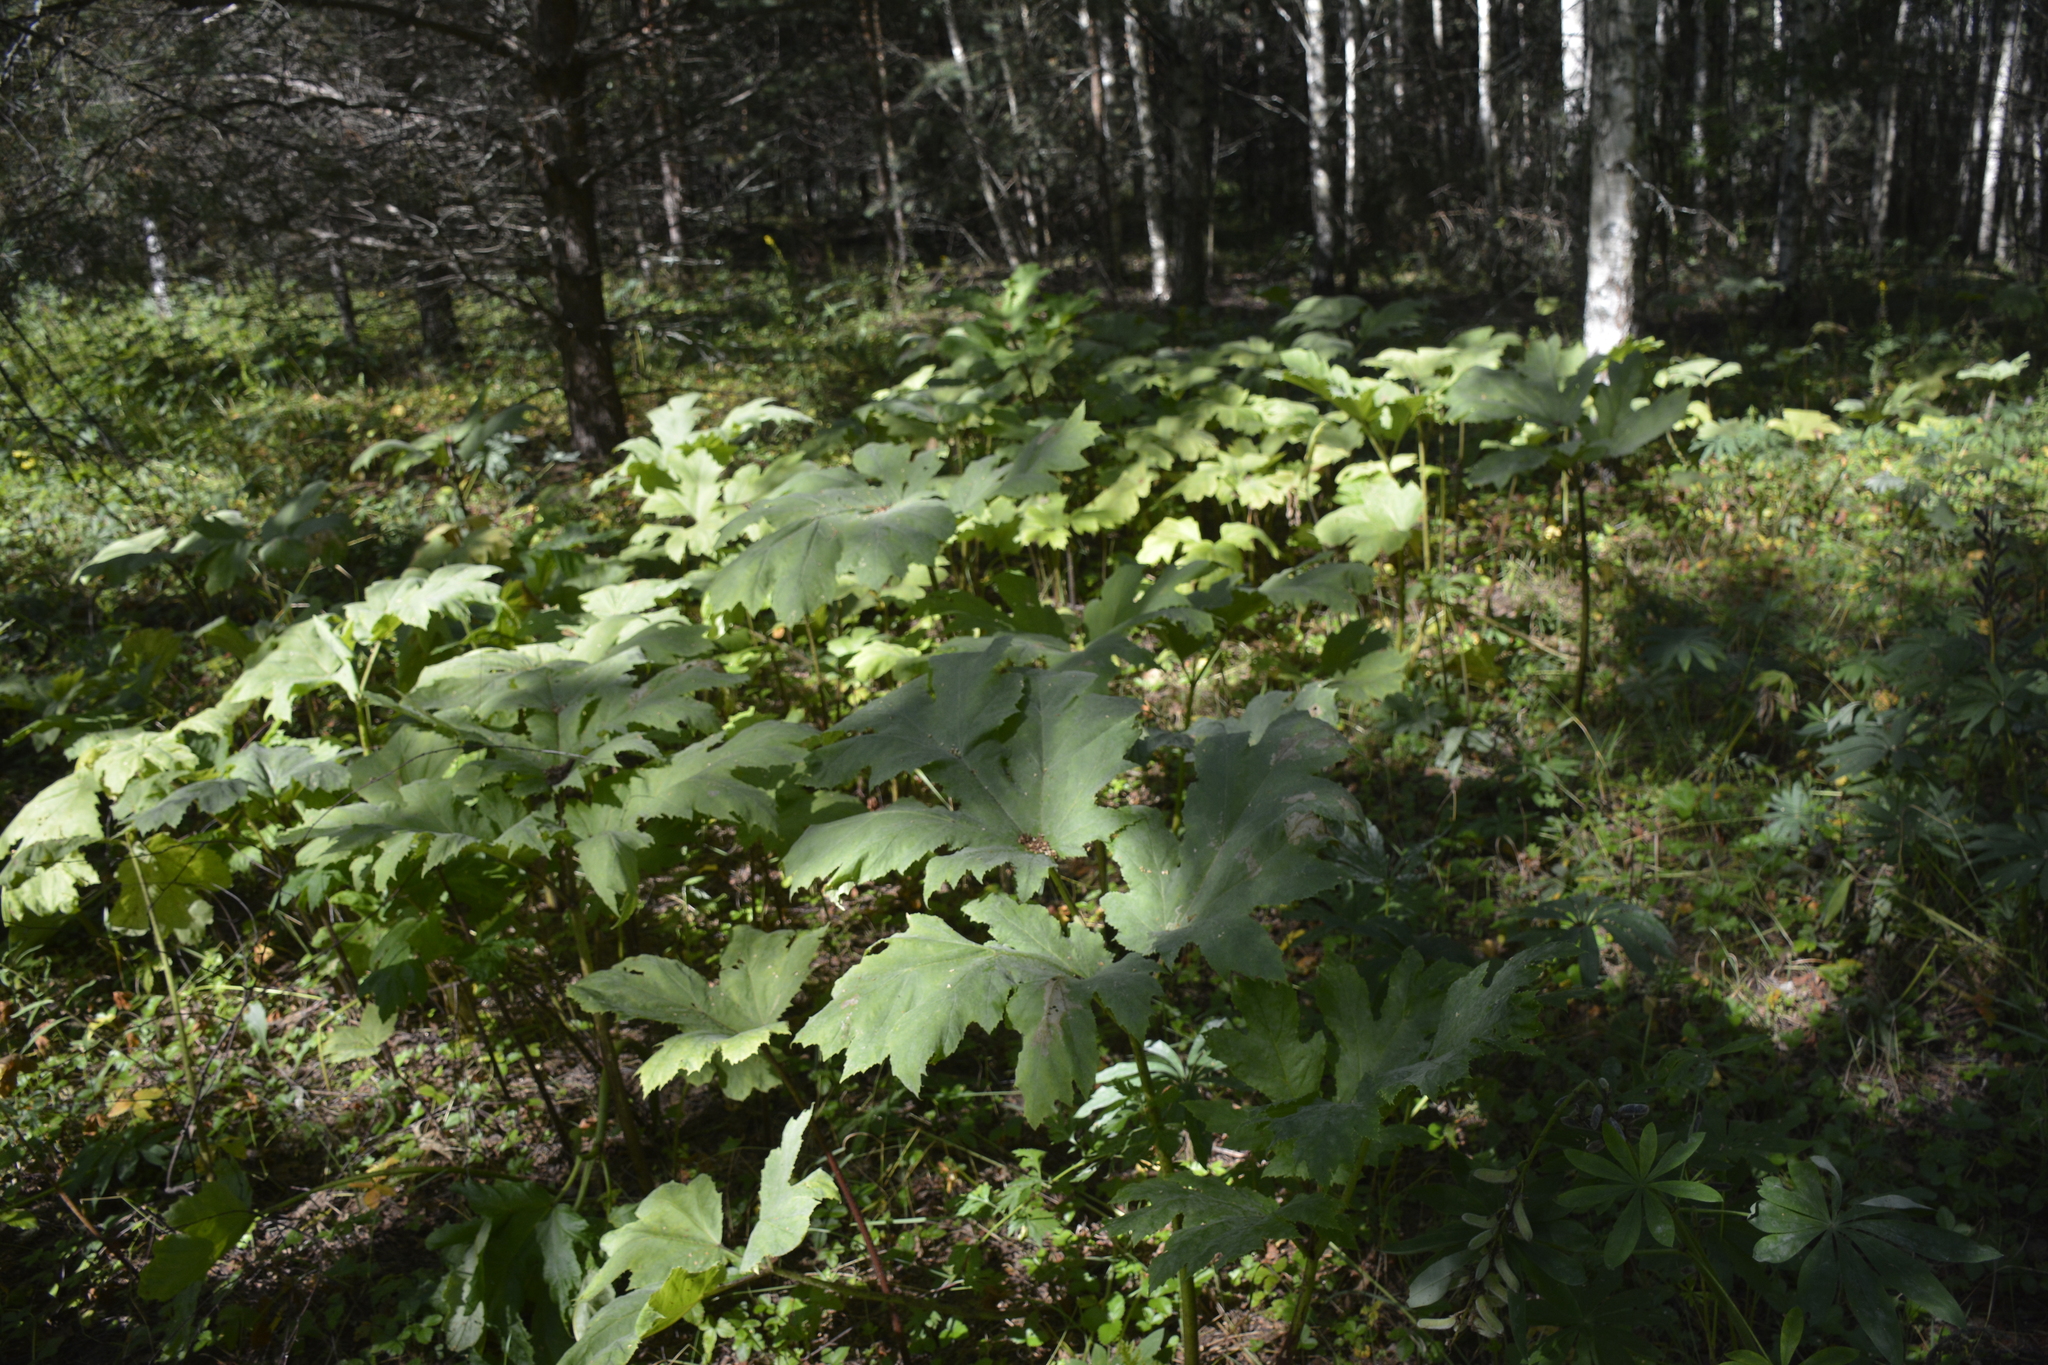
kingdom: Plantae
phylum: Tracheophyta
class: Magnoliopsida
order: Apiales
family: Apiaceae
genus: Heracleum
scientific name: Heracleum sosnowskyi
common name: Sosnowsky's hogweed
